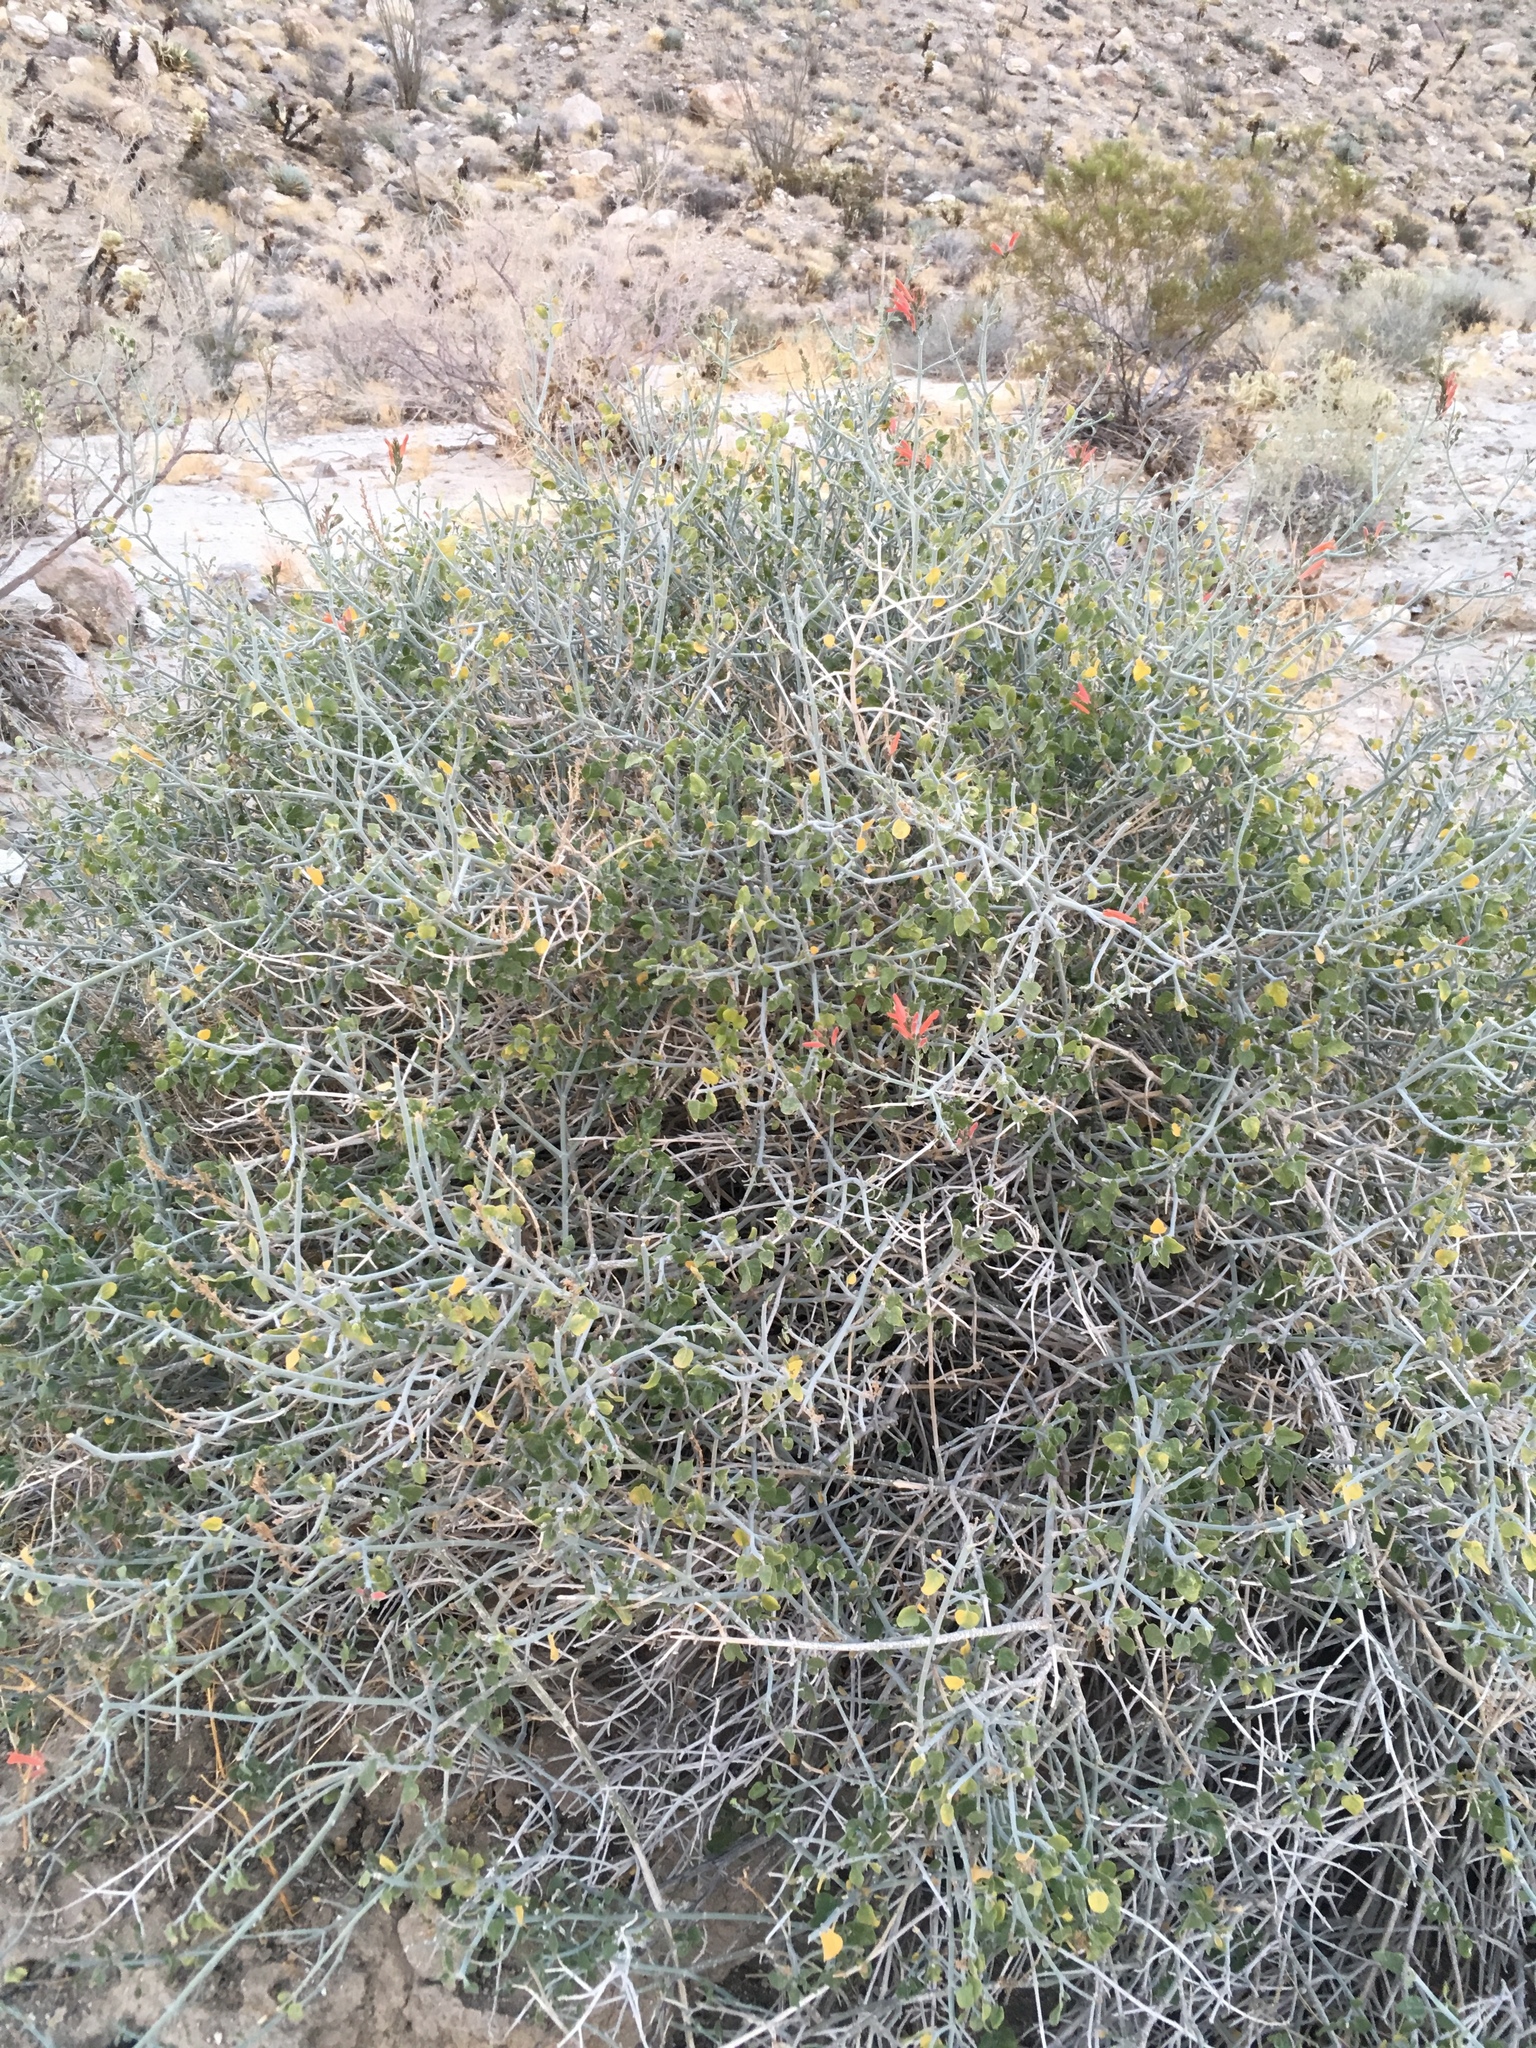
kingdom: Plantae
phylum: Tracheophyta
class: Magnoliopsida
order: Lamiales
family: Acanthaceae
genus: Justicia
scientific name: Justicia californica
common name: Chuparosa-honeysuckle
